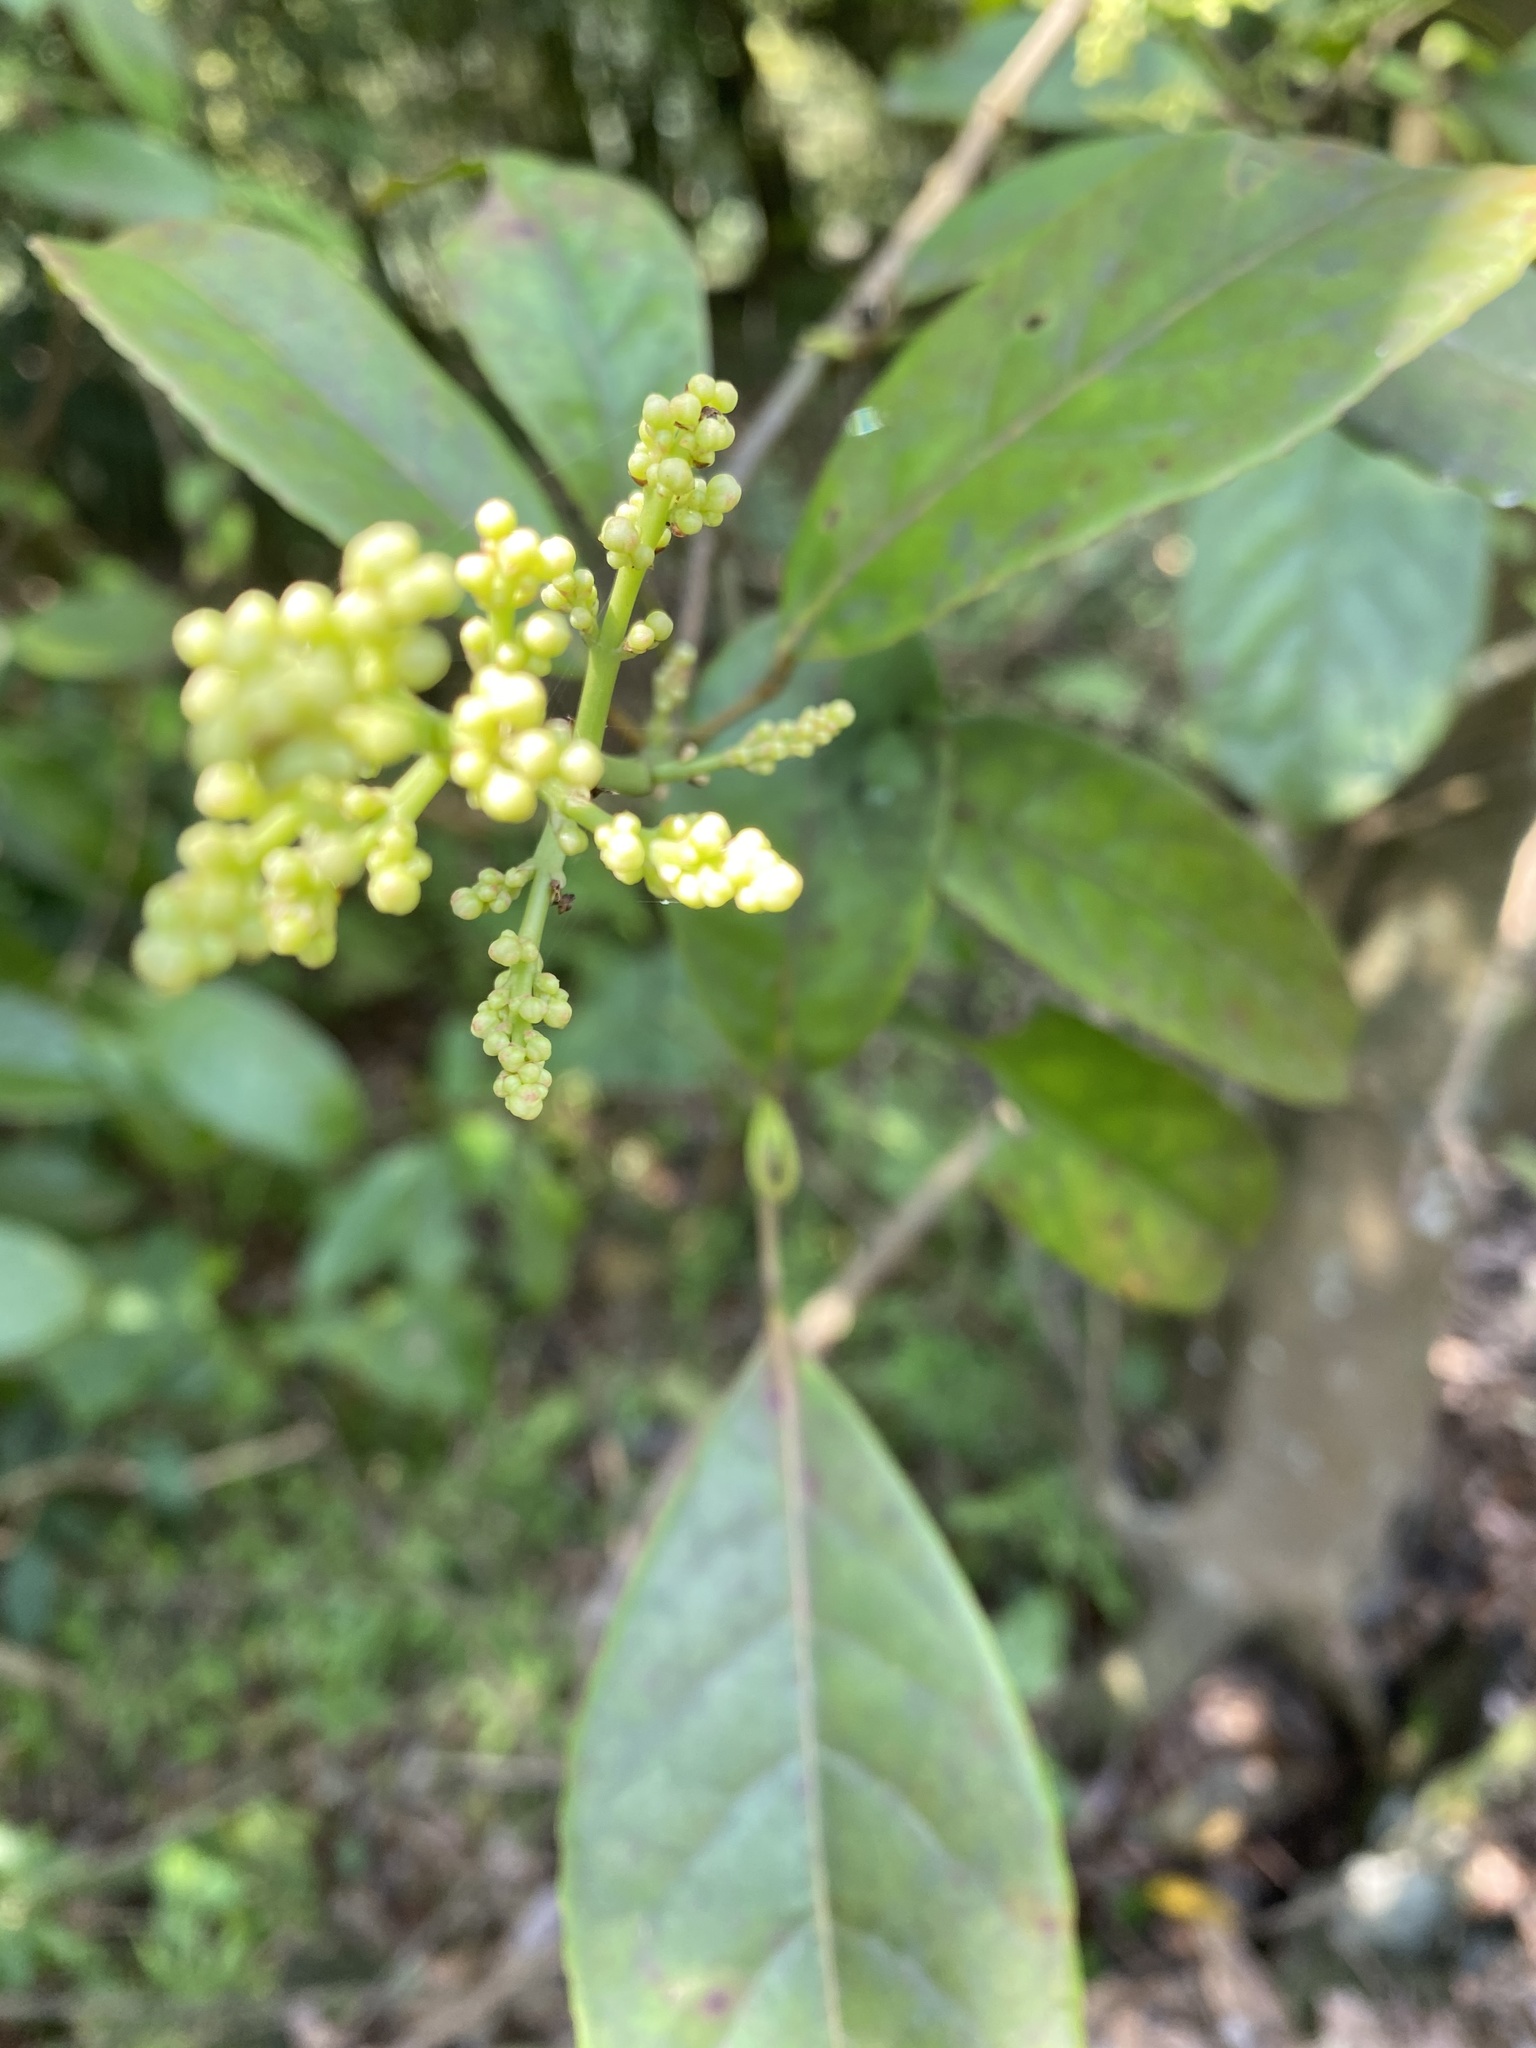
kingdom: Plantae
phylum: Tracheophyta
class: Magnoliopsida
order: Crossosomatales
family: Staphyleaceae
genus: Turpinia
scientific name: Turpinia formosana
